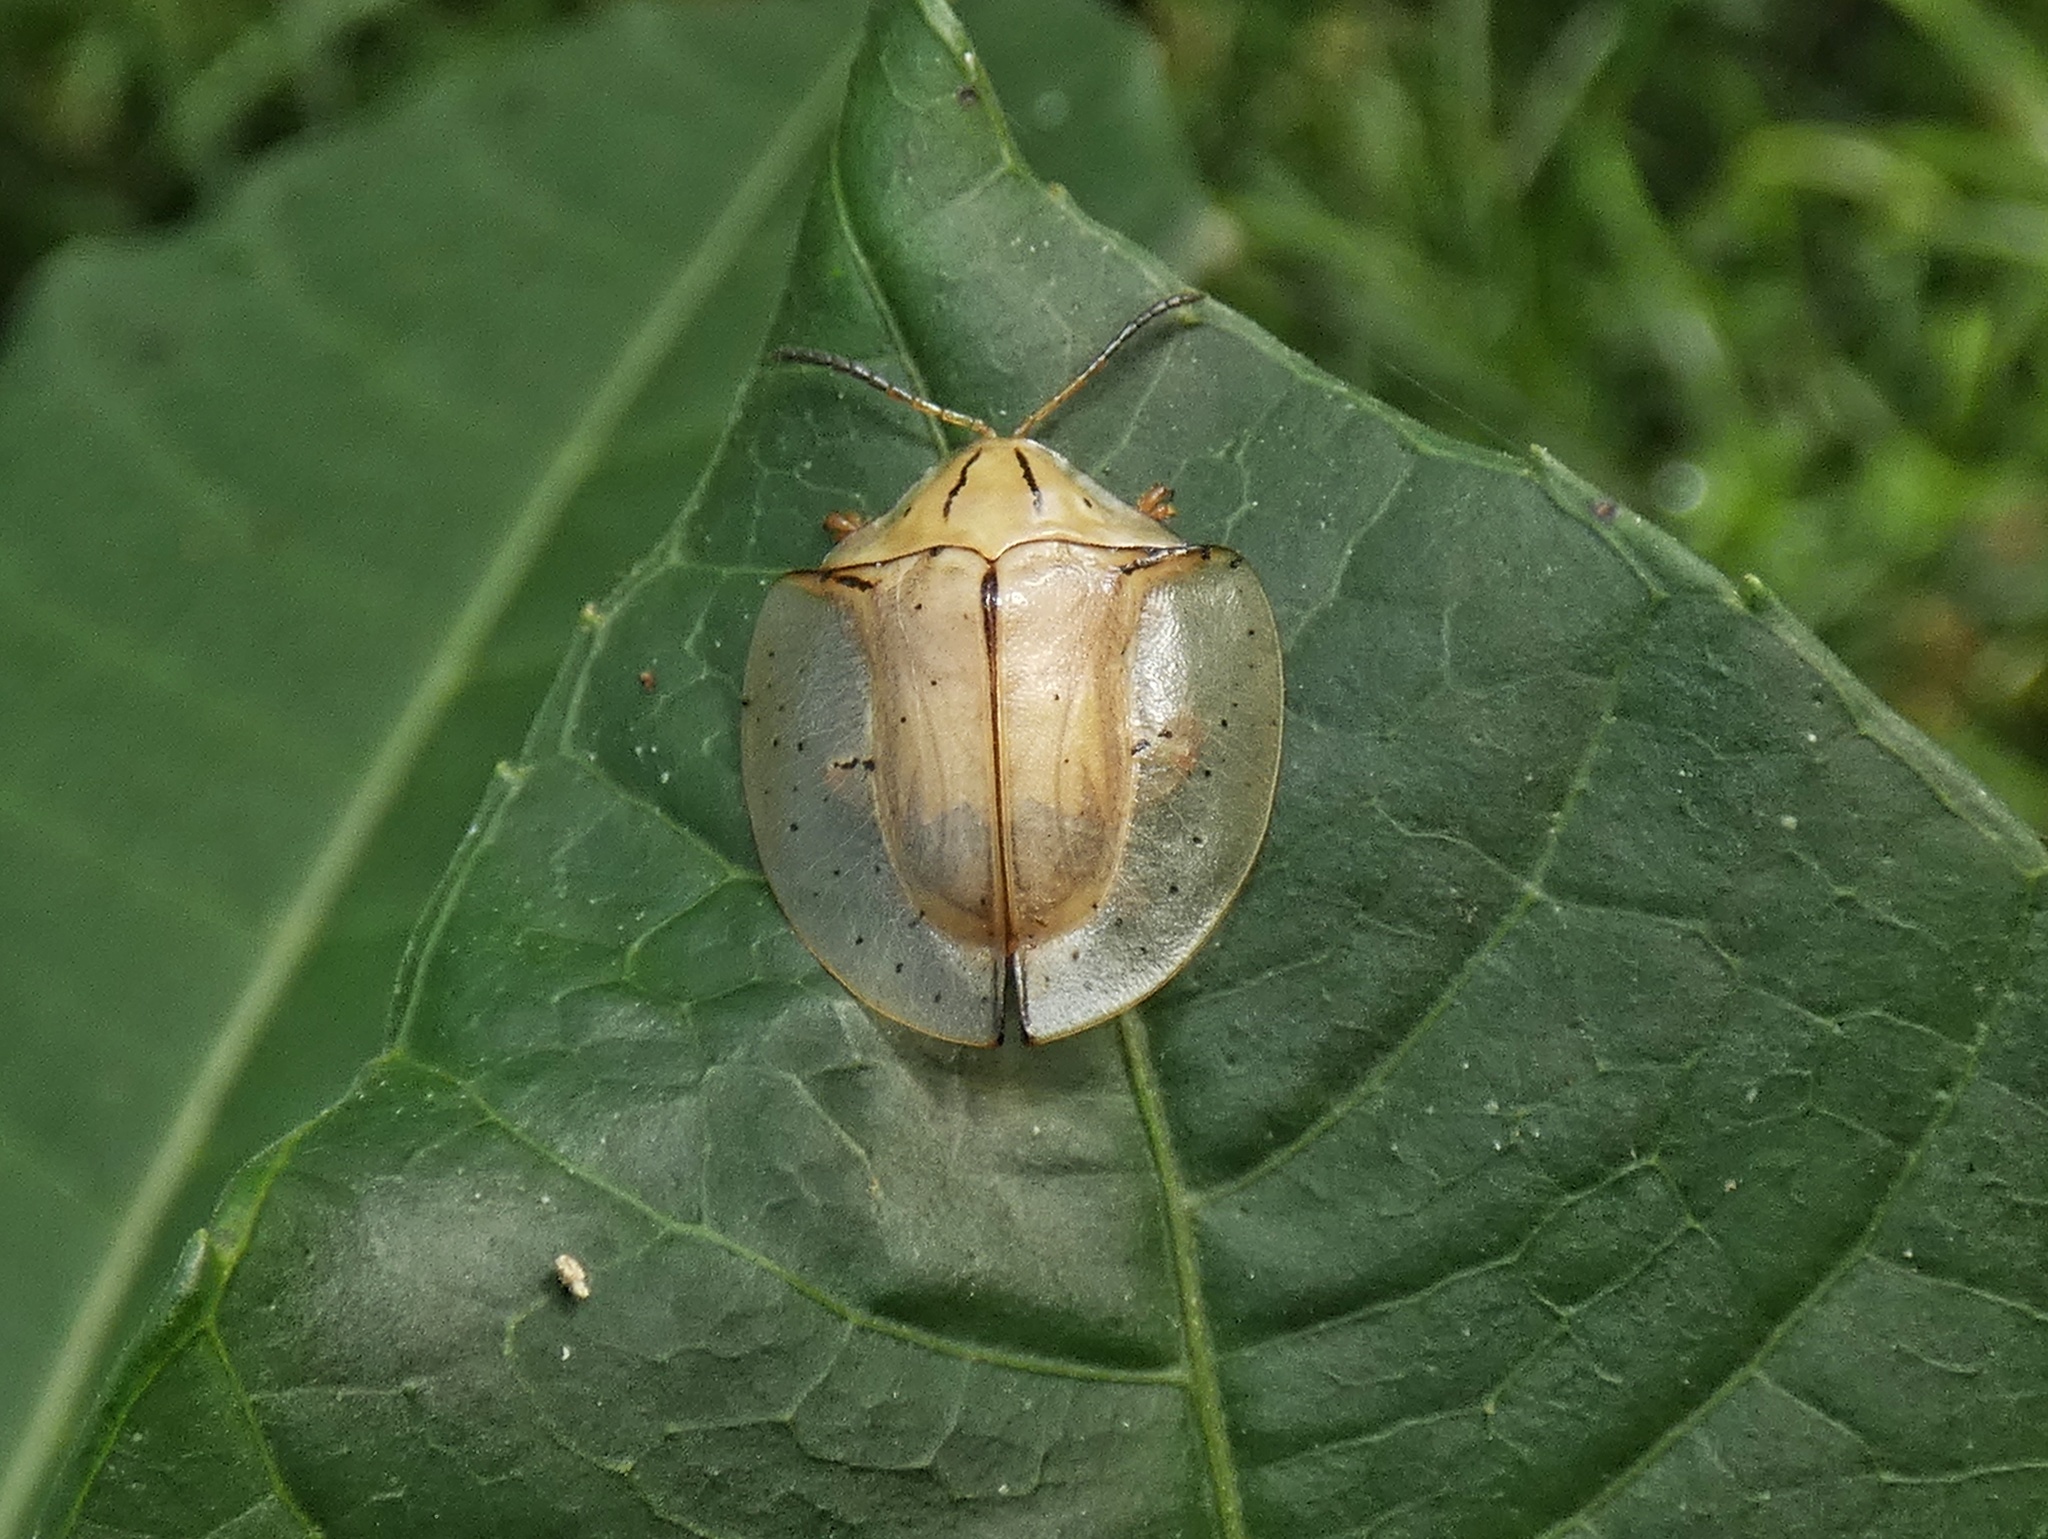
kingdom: Animalia
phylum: Arthropoda
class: Insecta
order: Coleoptera
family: Chrysomelidae
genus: Acromis
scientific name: Acromis sparsa
